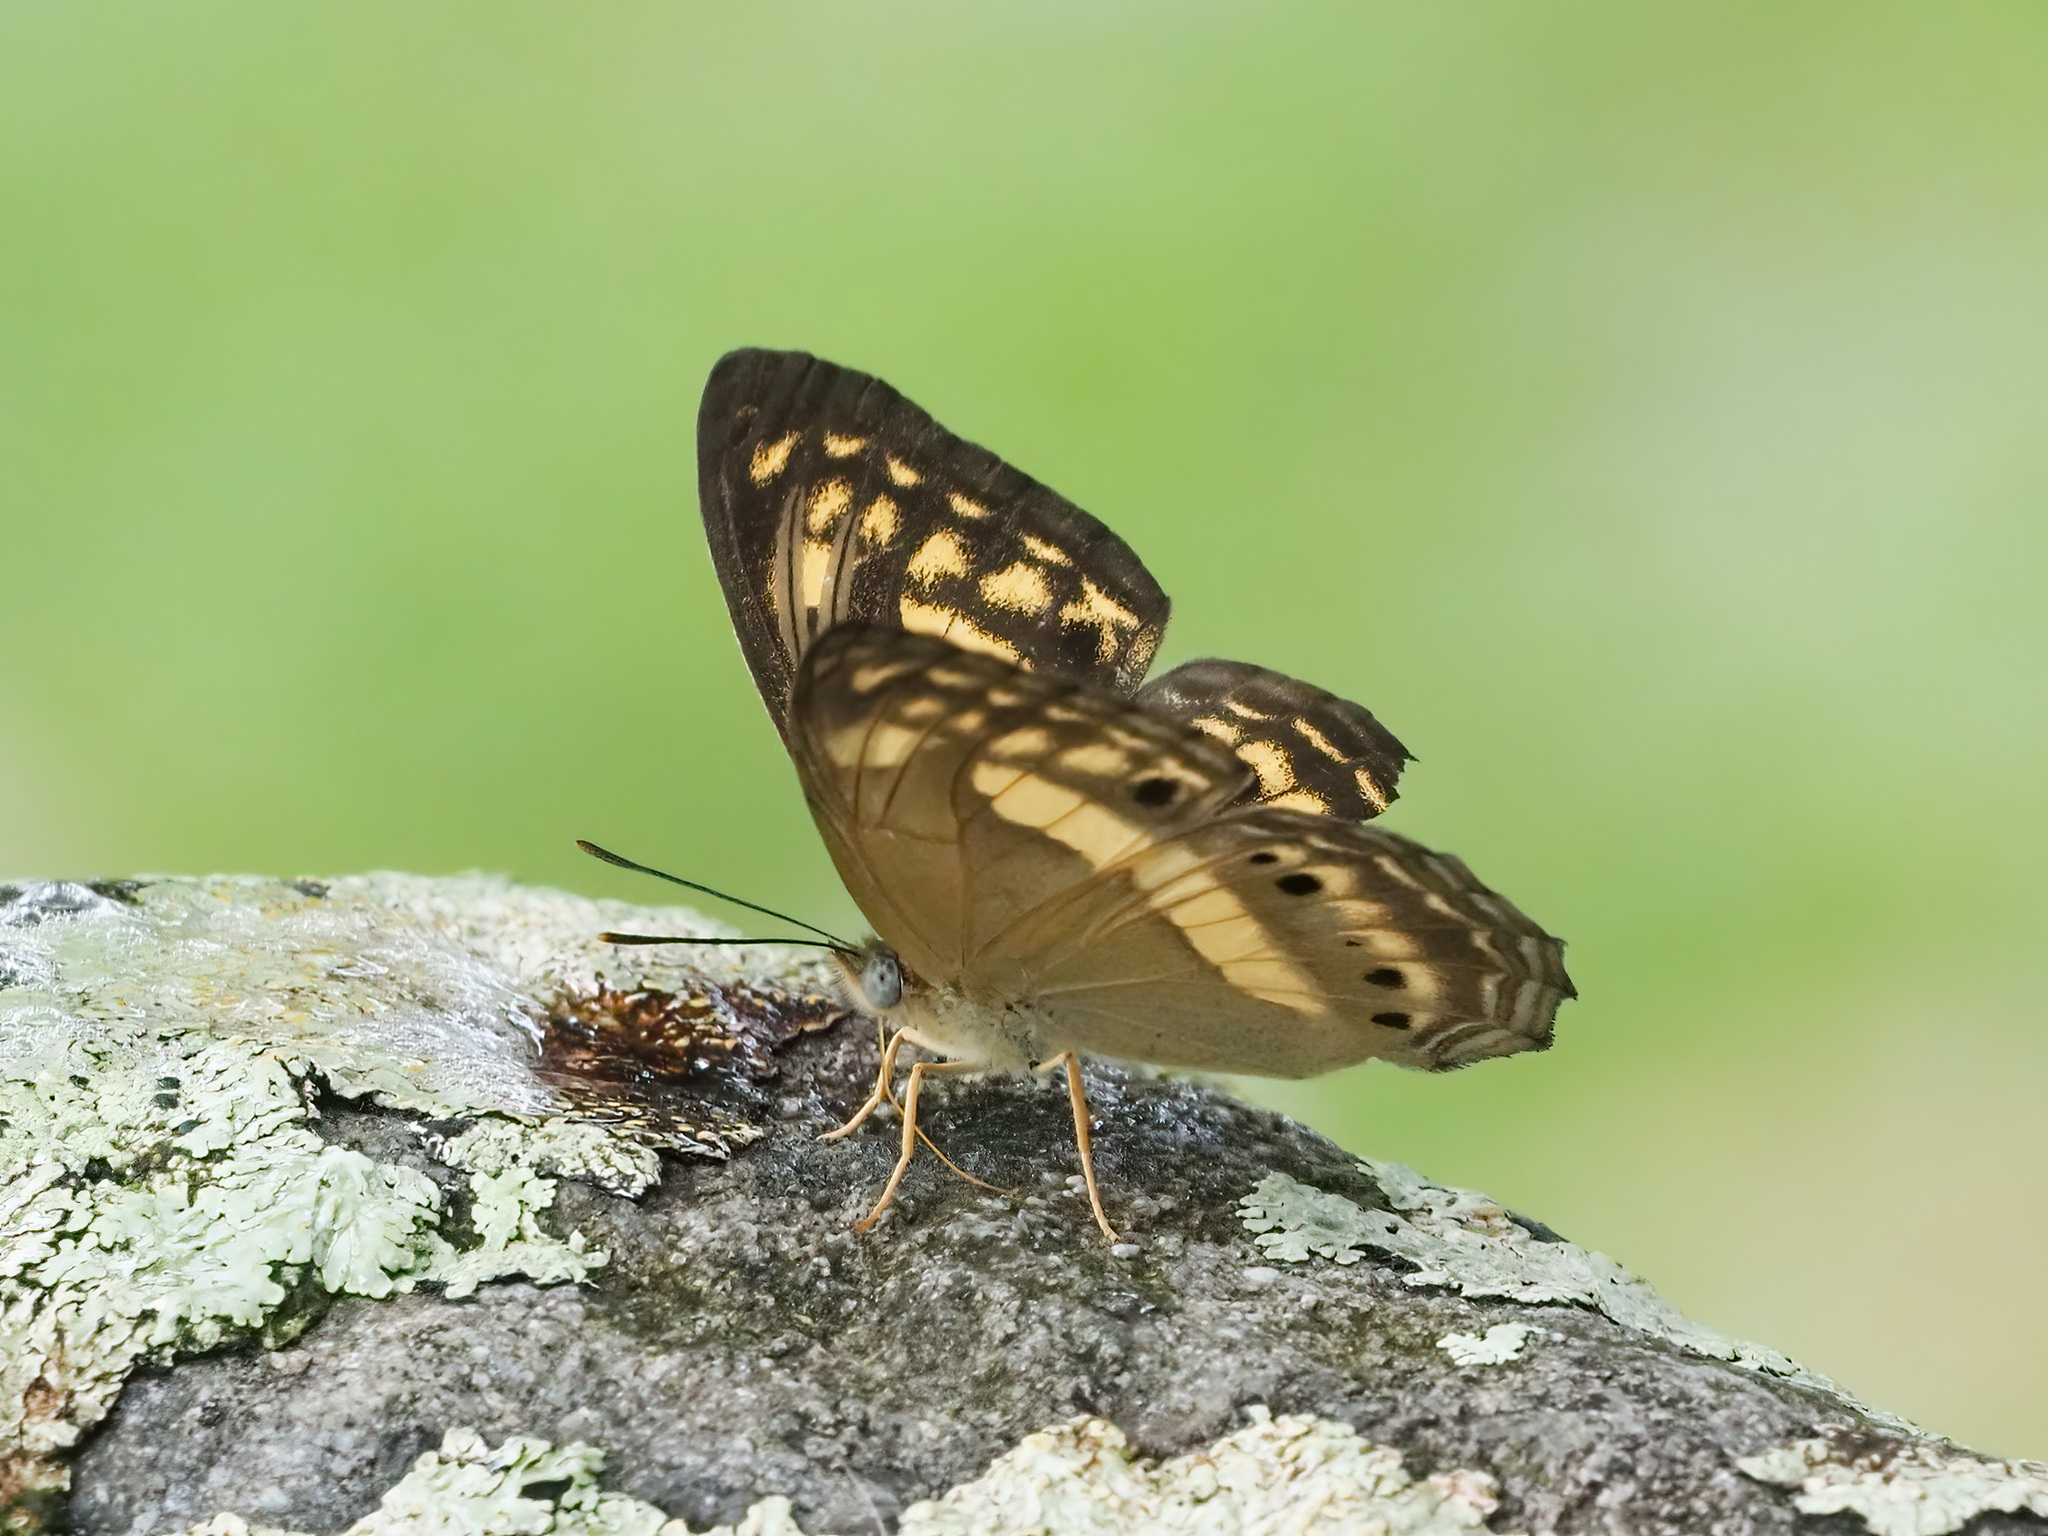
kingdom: Animalia
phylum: Arthropoda
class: Insecta
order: Lepidoptera
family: Nymphalidae
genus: Algia
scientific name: Algia fasciata
